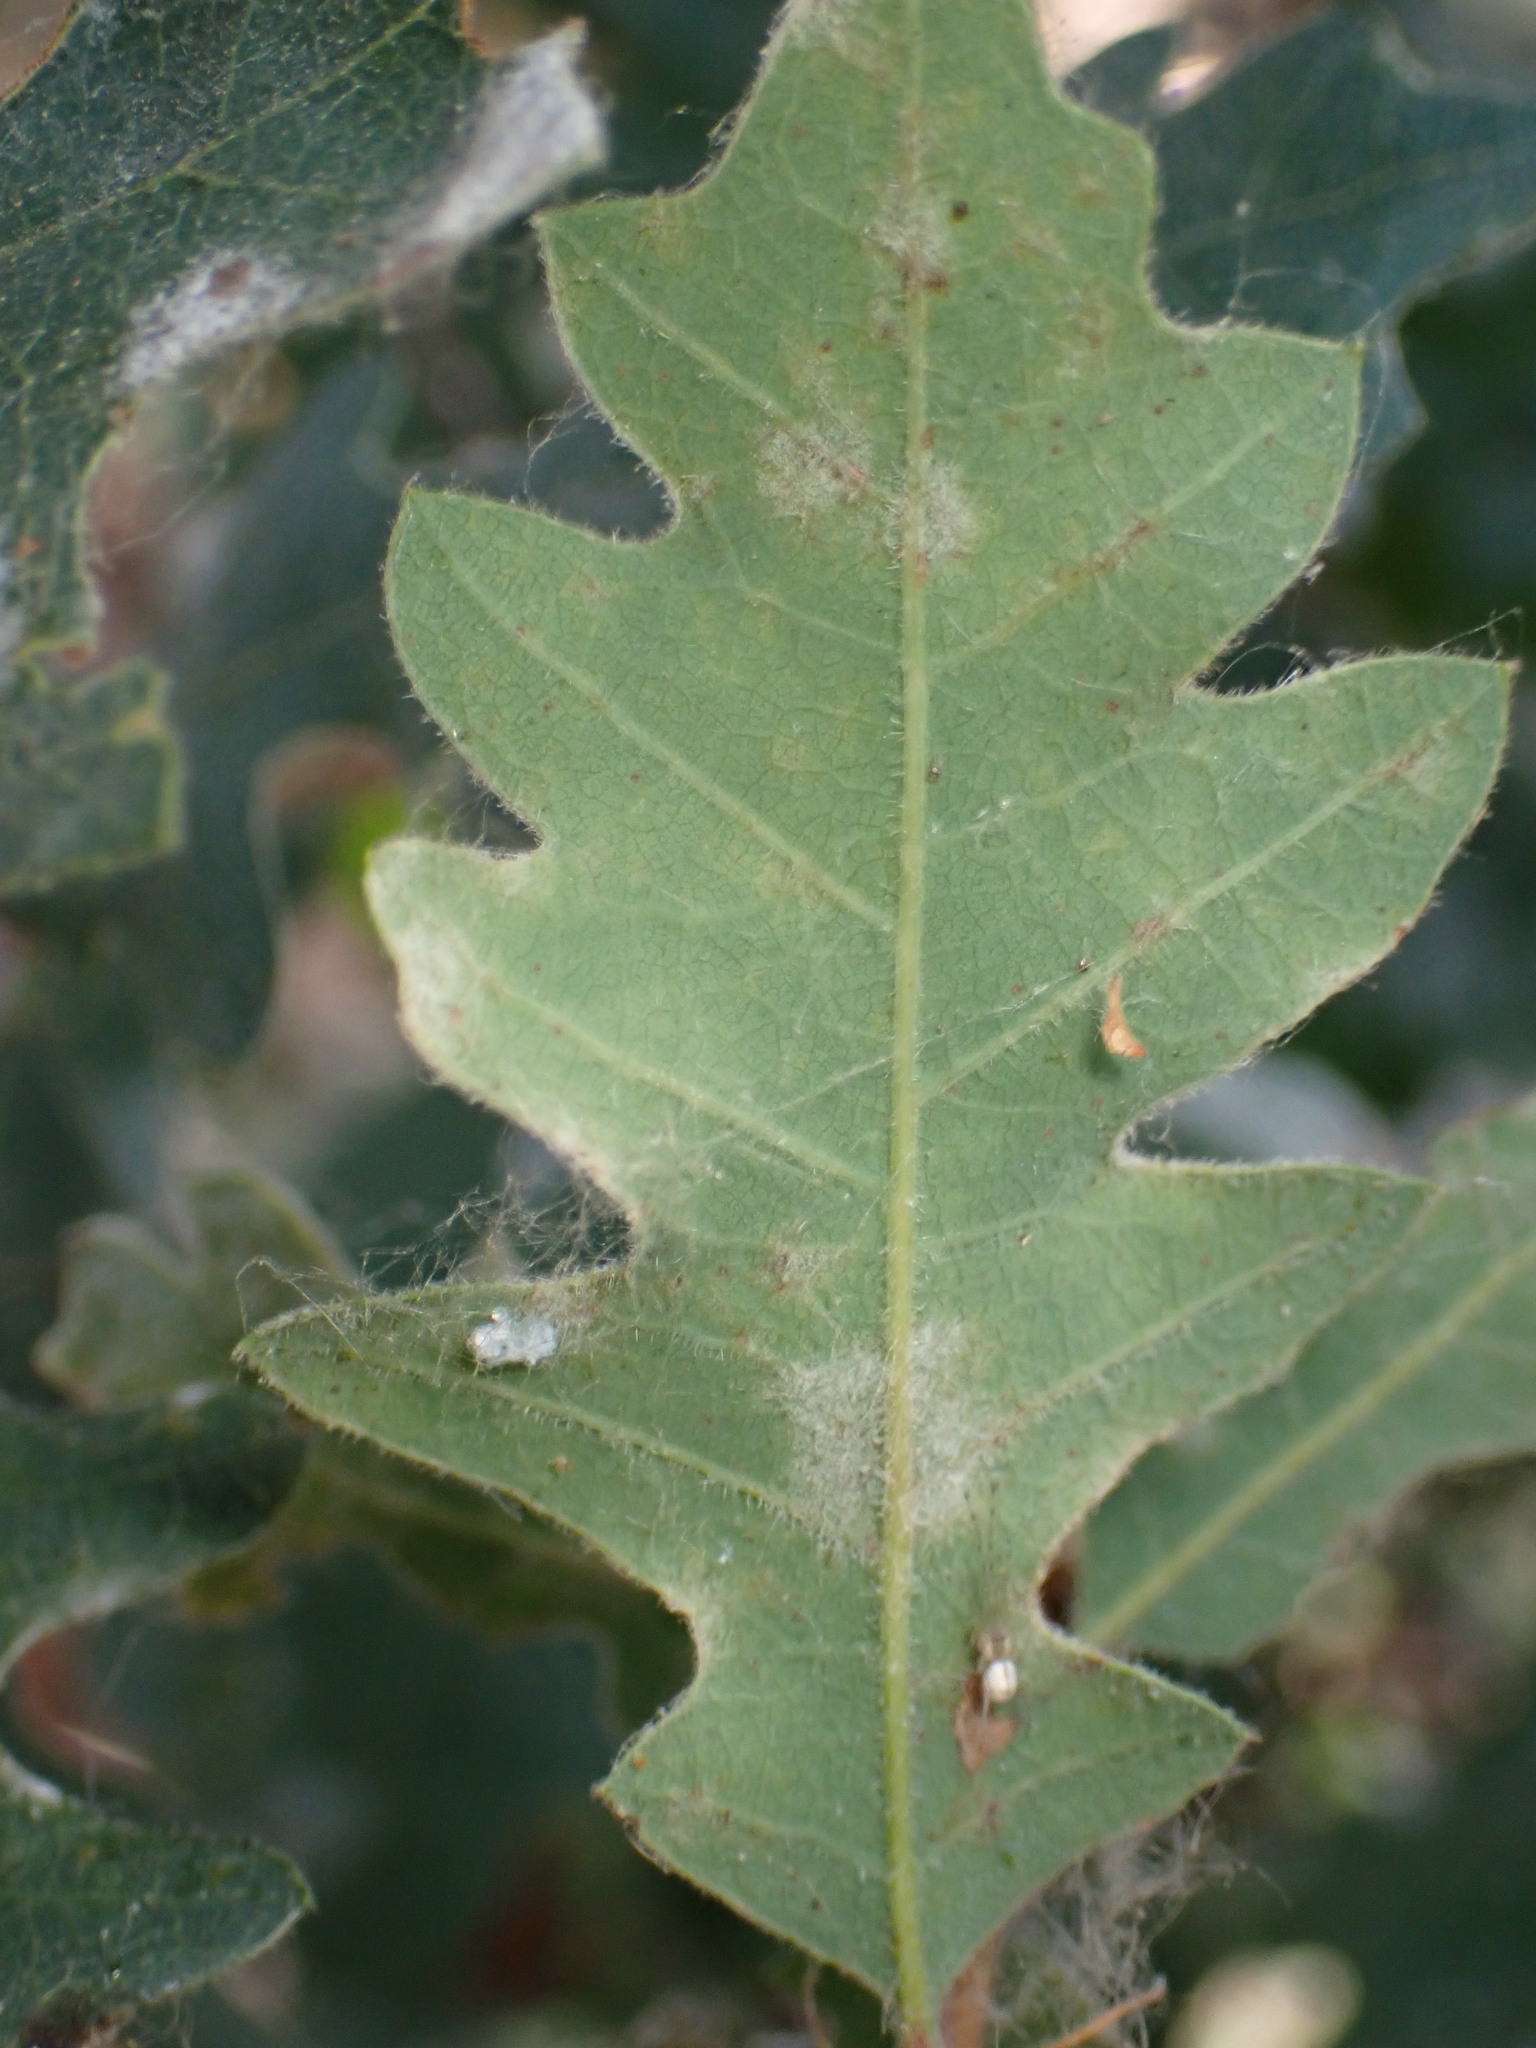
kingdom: Fungi
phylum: Ascomycota
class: Leotiomycetes
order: Helotiales
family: Erysiphaceae
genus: Erysiphe
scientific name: Erysiphe alphitoides
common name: Oak mildew
